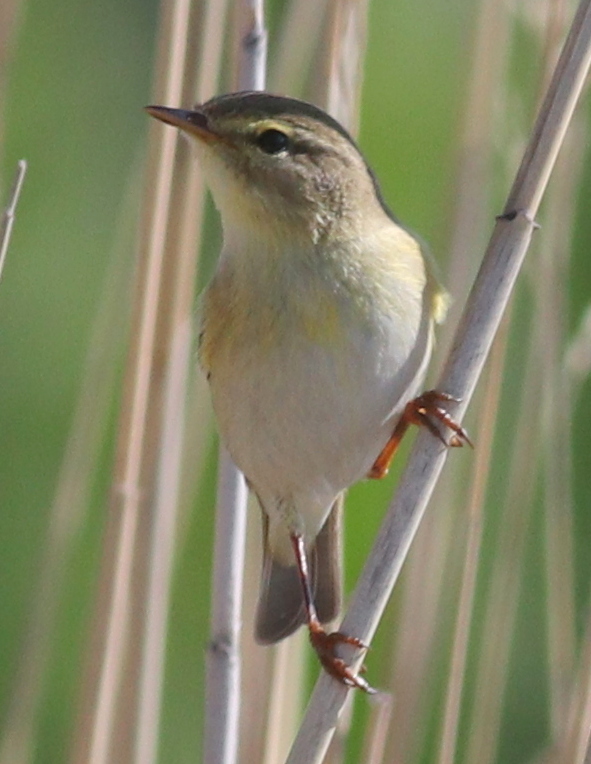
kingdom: Animalia
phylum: Chordata
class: Aves
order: Passeriformes
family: Phylloscopidae
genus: Phylloscopus
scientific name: Phylloscopus trochilus
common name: Willow warbler
